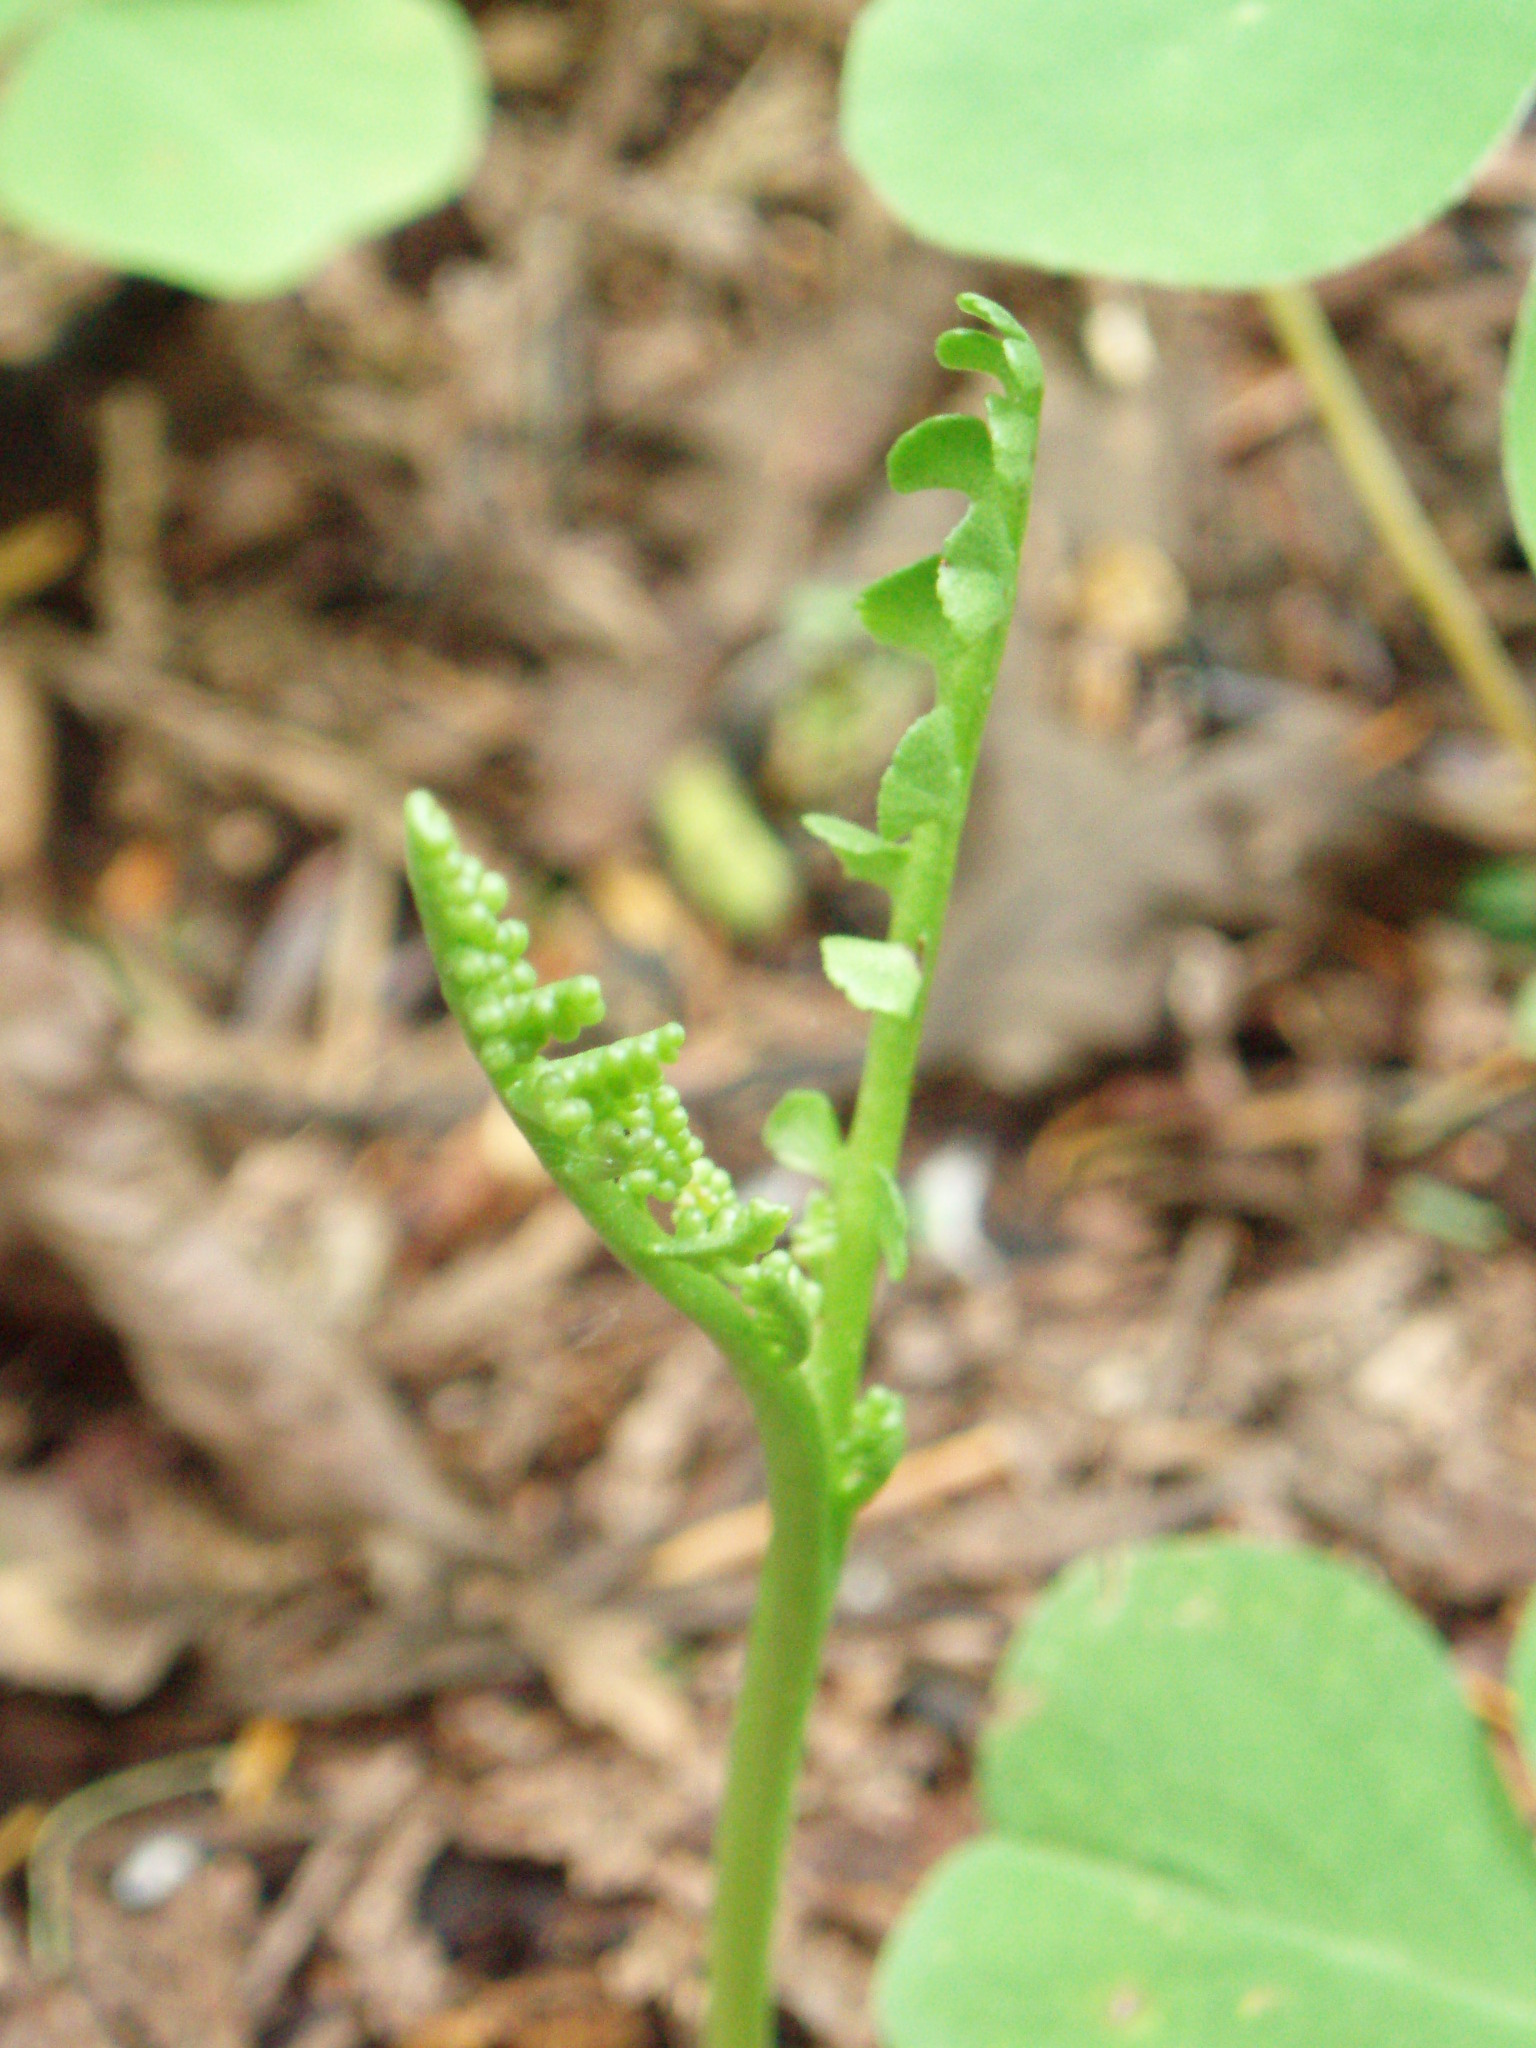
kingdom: Plantae
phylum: Tracheophyta
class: Polypodiopsida
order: Ophioglossales
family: Ophioglossaceae
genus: Botrychium
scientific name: Botrychium minganense
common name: Mingan grapefern
